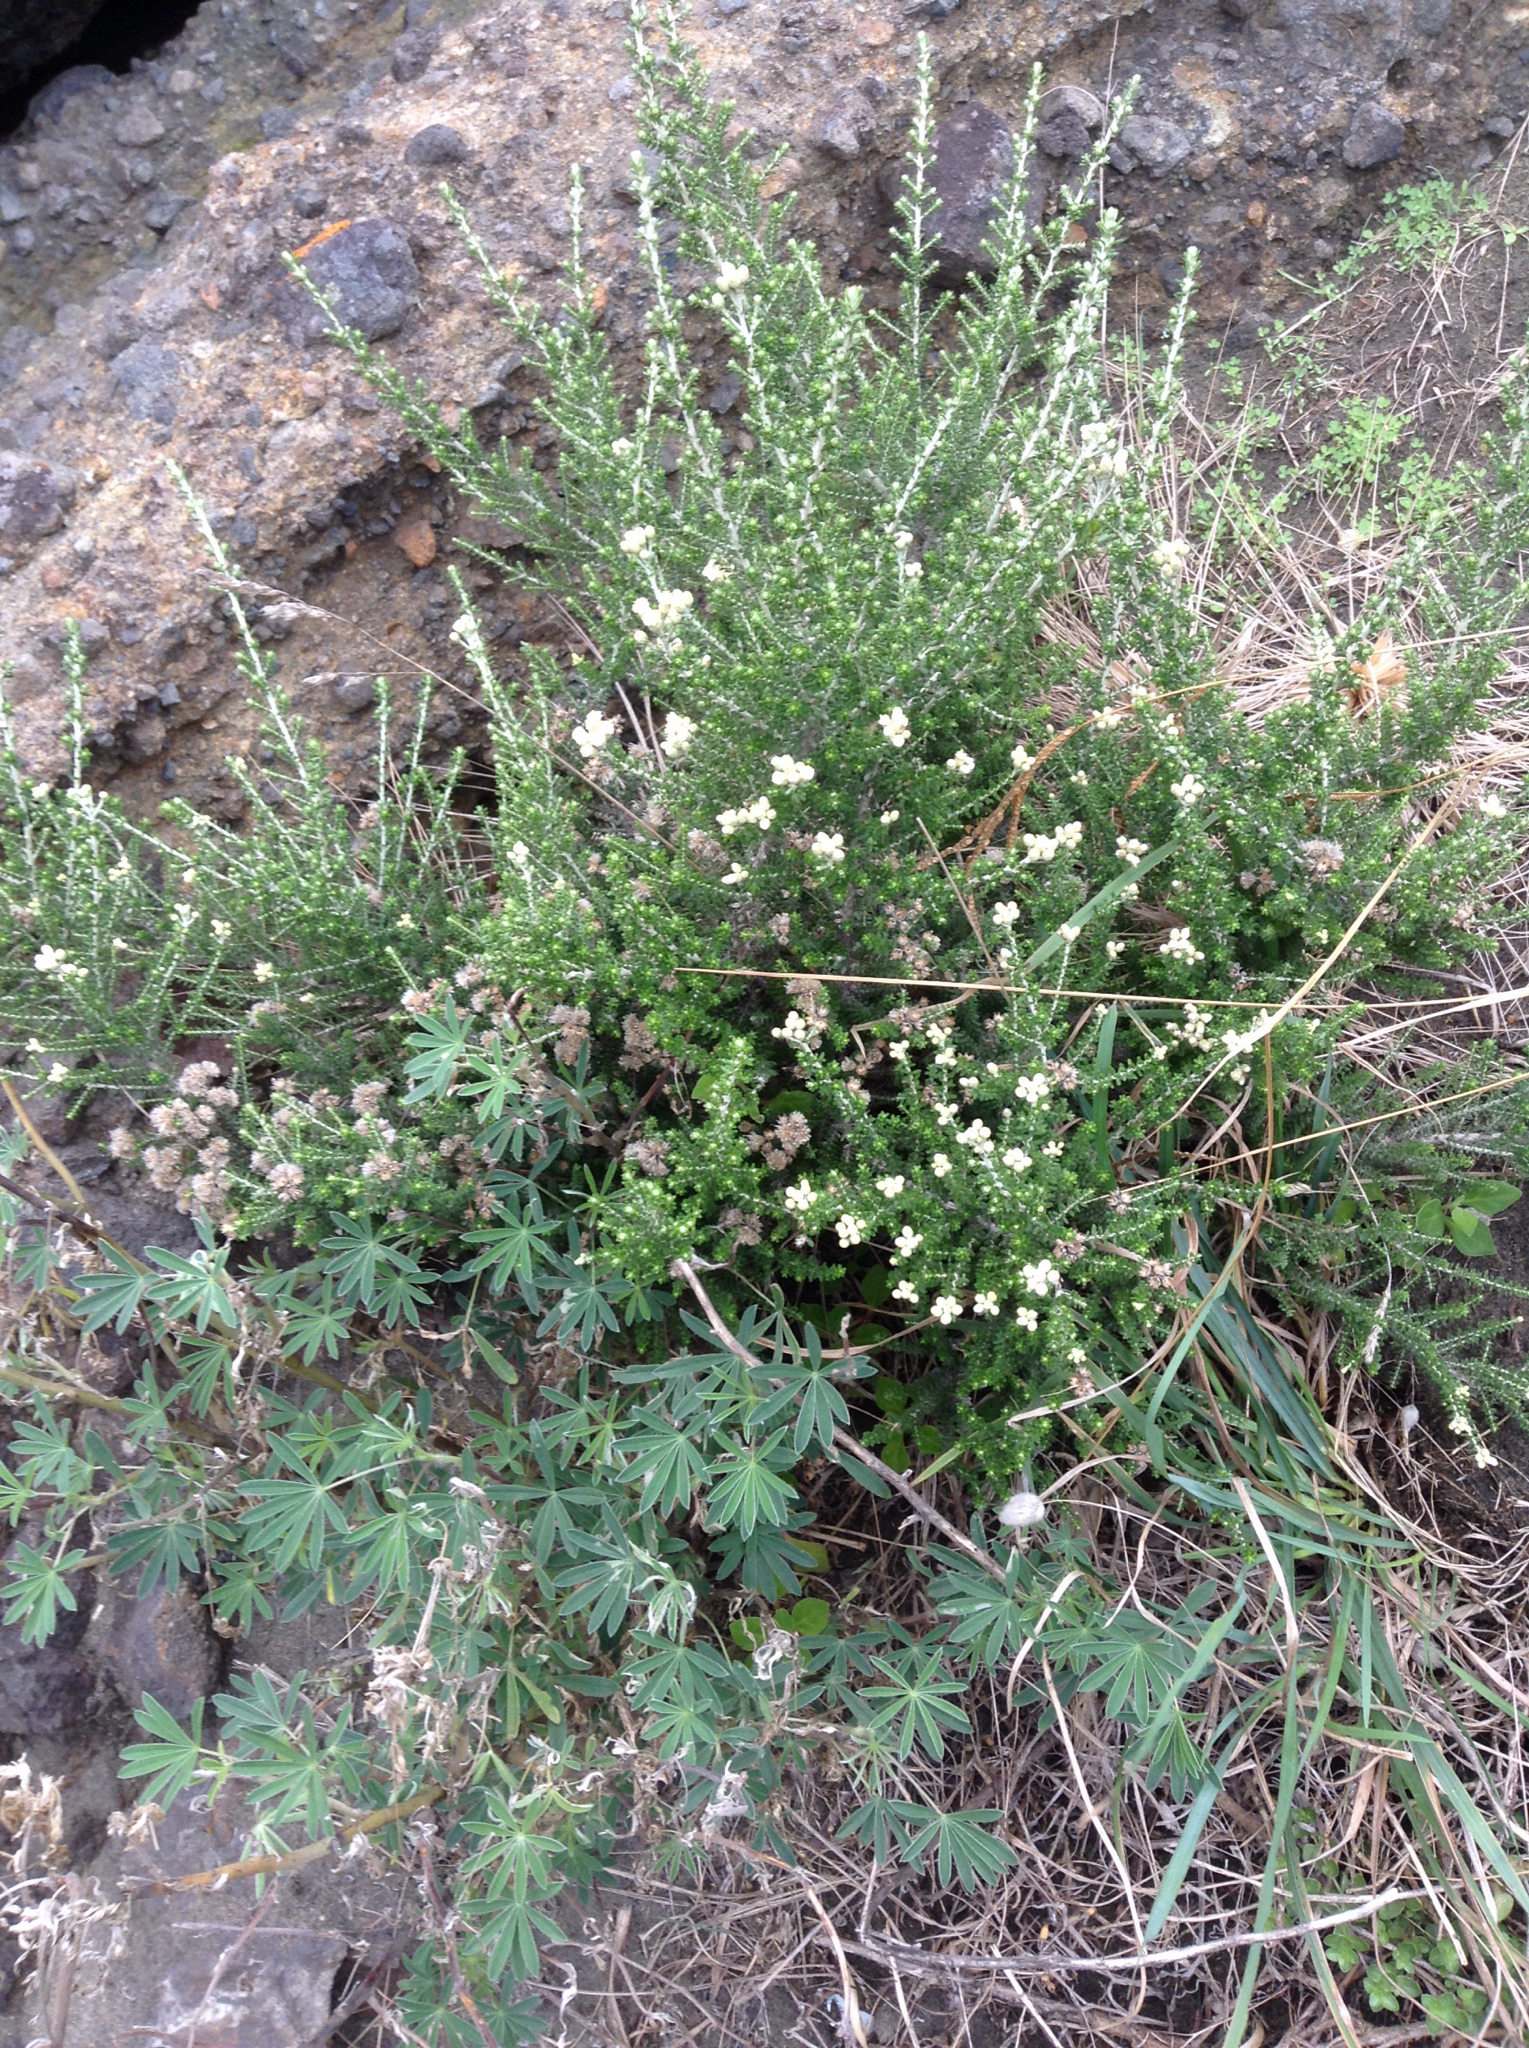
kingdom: Plantae
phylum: Tracheophyta
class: Magnoliopsida
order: Asterales
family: Asteraceae
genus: Ozothamnus
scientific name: Ozothamnus leptophyllus
